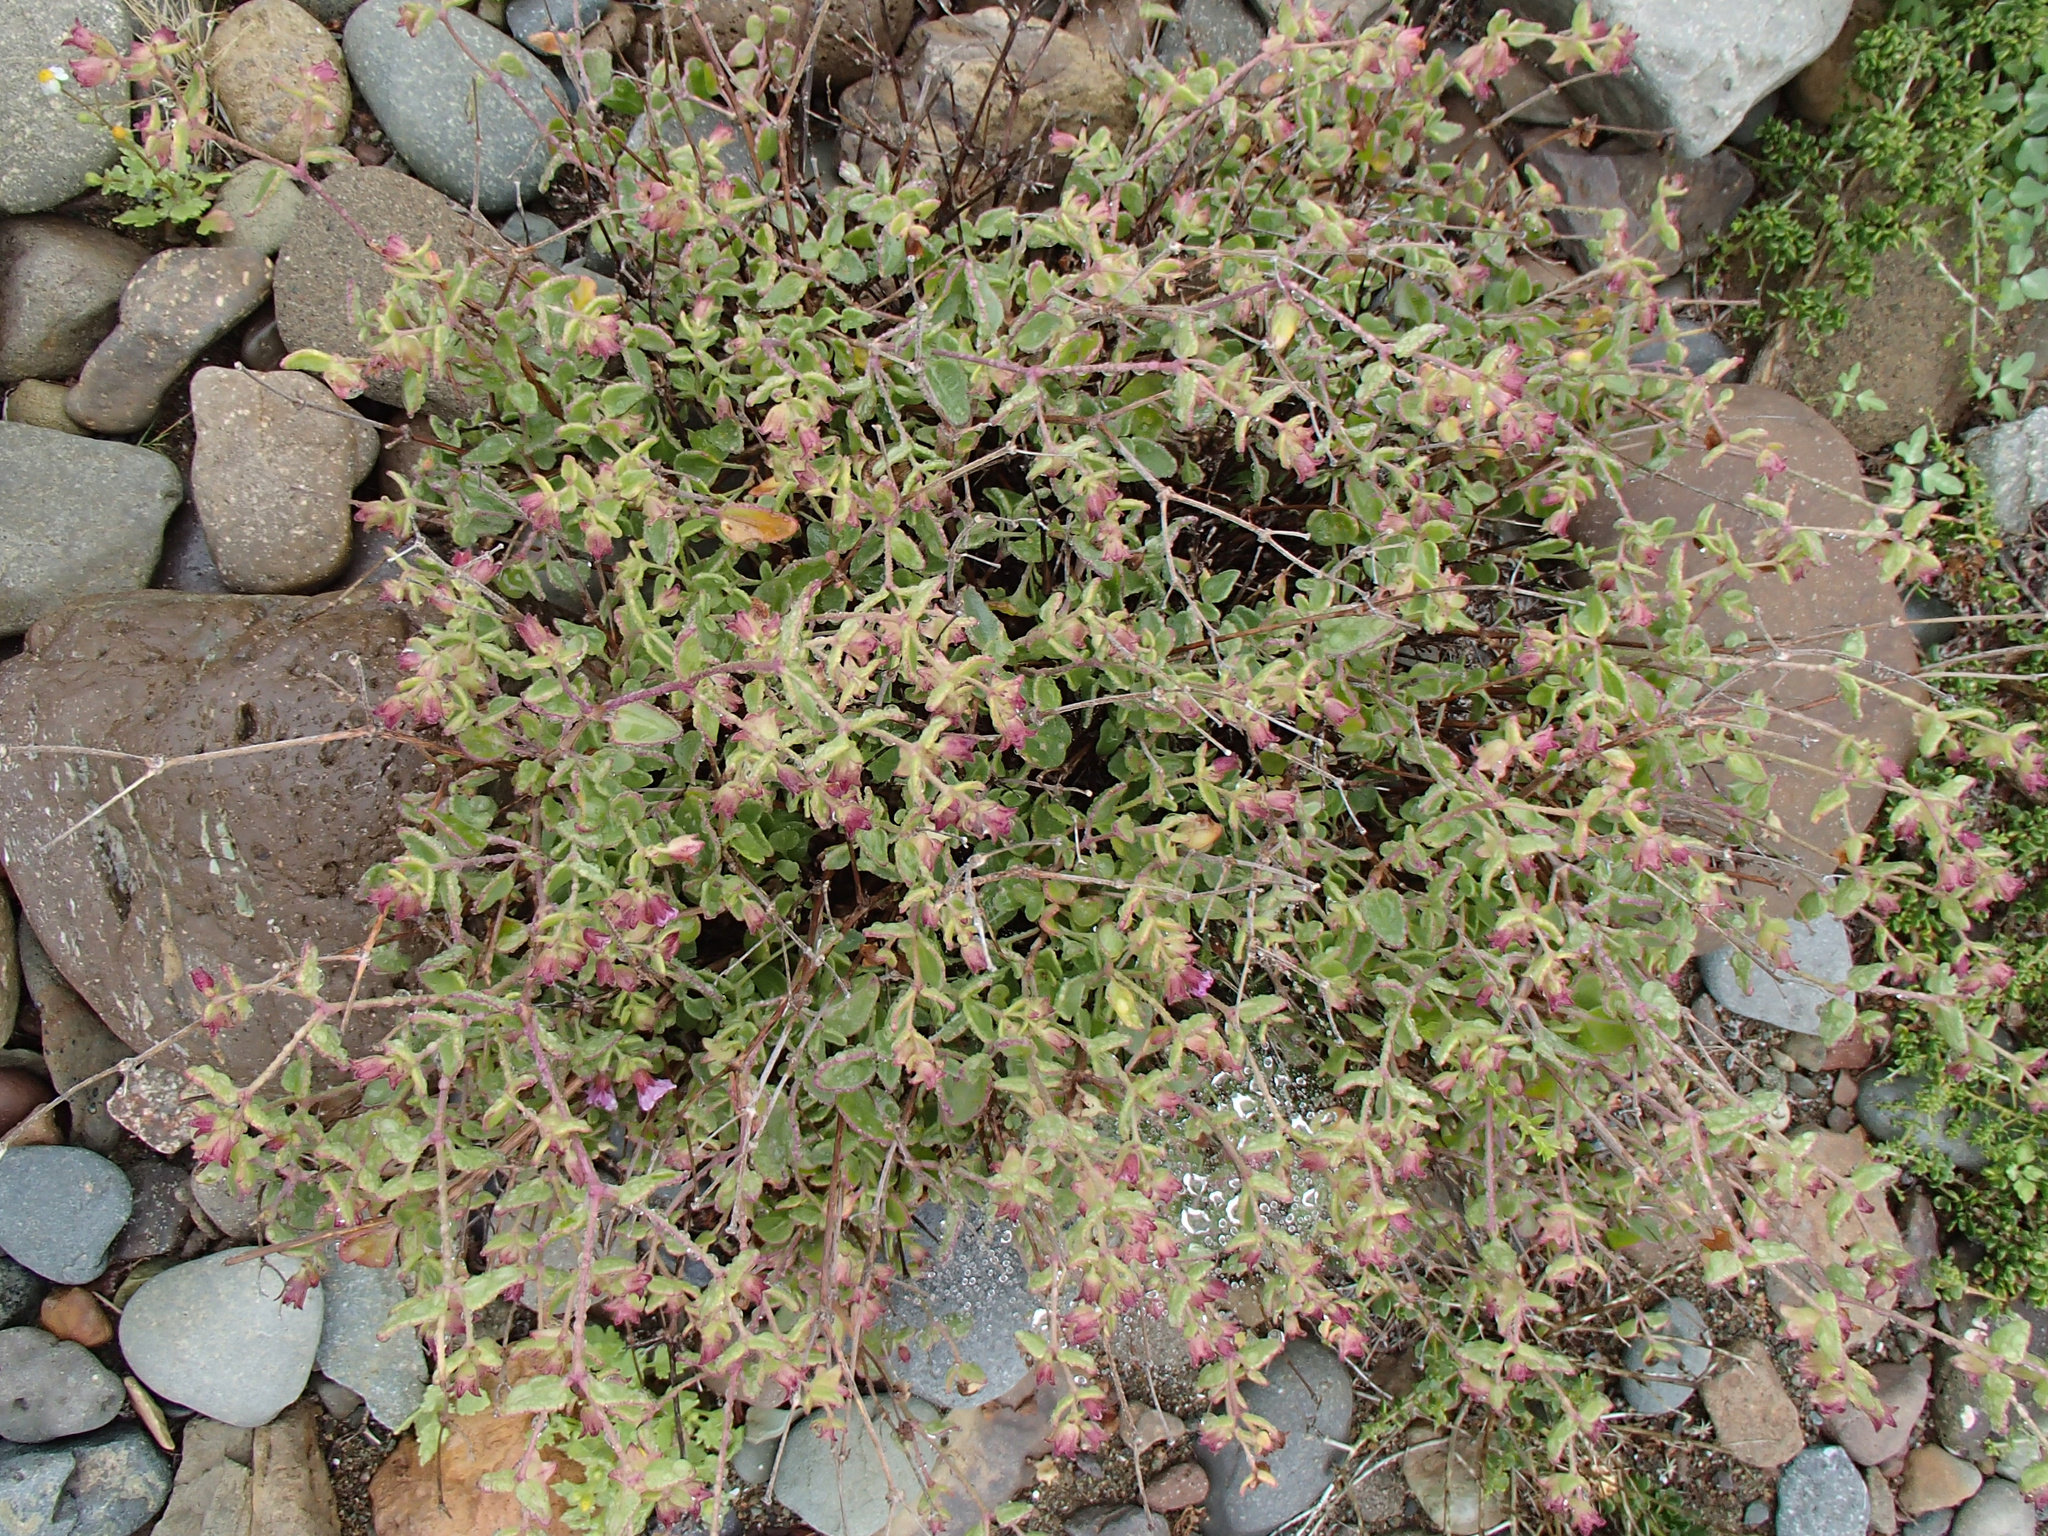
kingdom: Plantae
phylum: Tracheophyta
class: Magnoliopsida
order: Caryophyllales
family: Nyctaginaceae
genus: Mirabilis
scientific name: Mirabilis laevis
